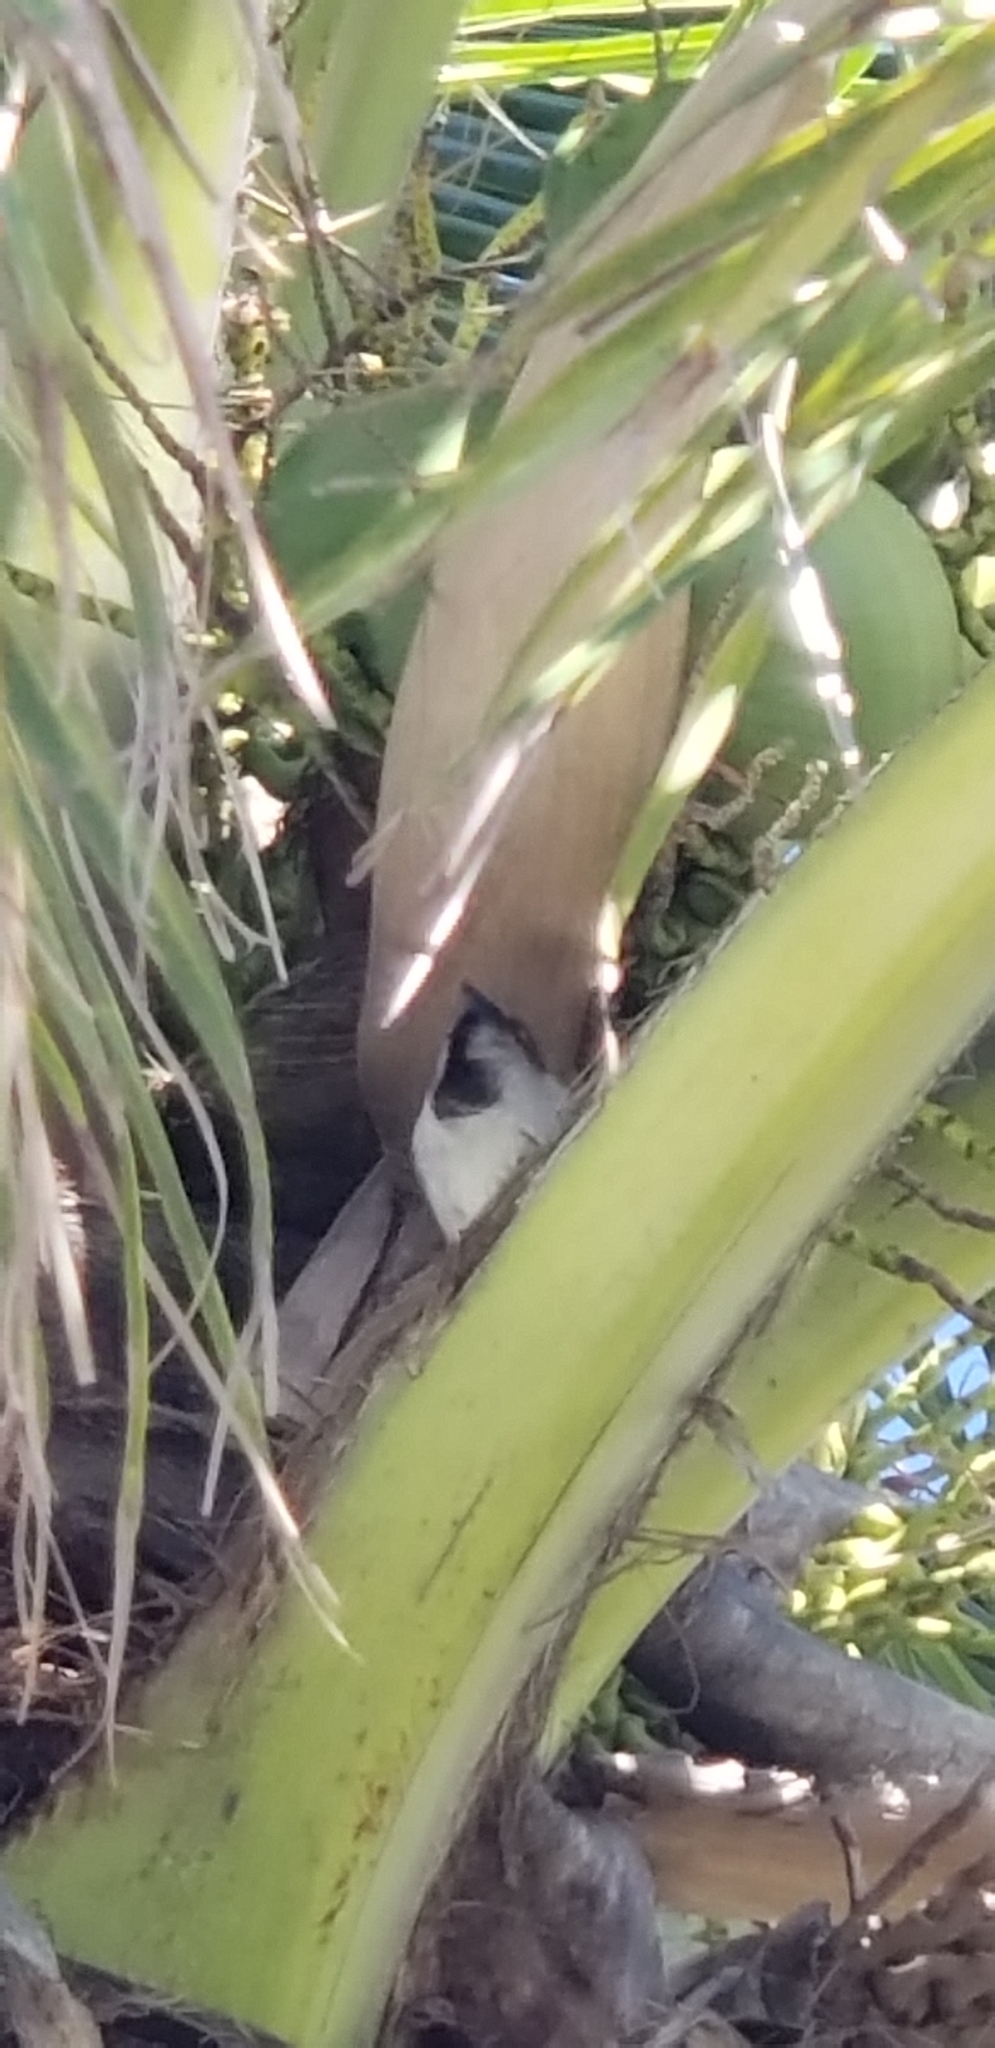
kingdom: Animalia
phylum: Chordata
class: Aves
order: Passeriformes
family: Passeridae
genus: Passer
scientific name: Passer domesticus
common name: House sparrow
